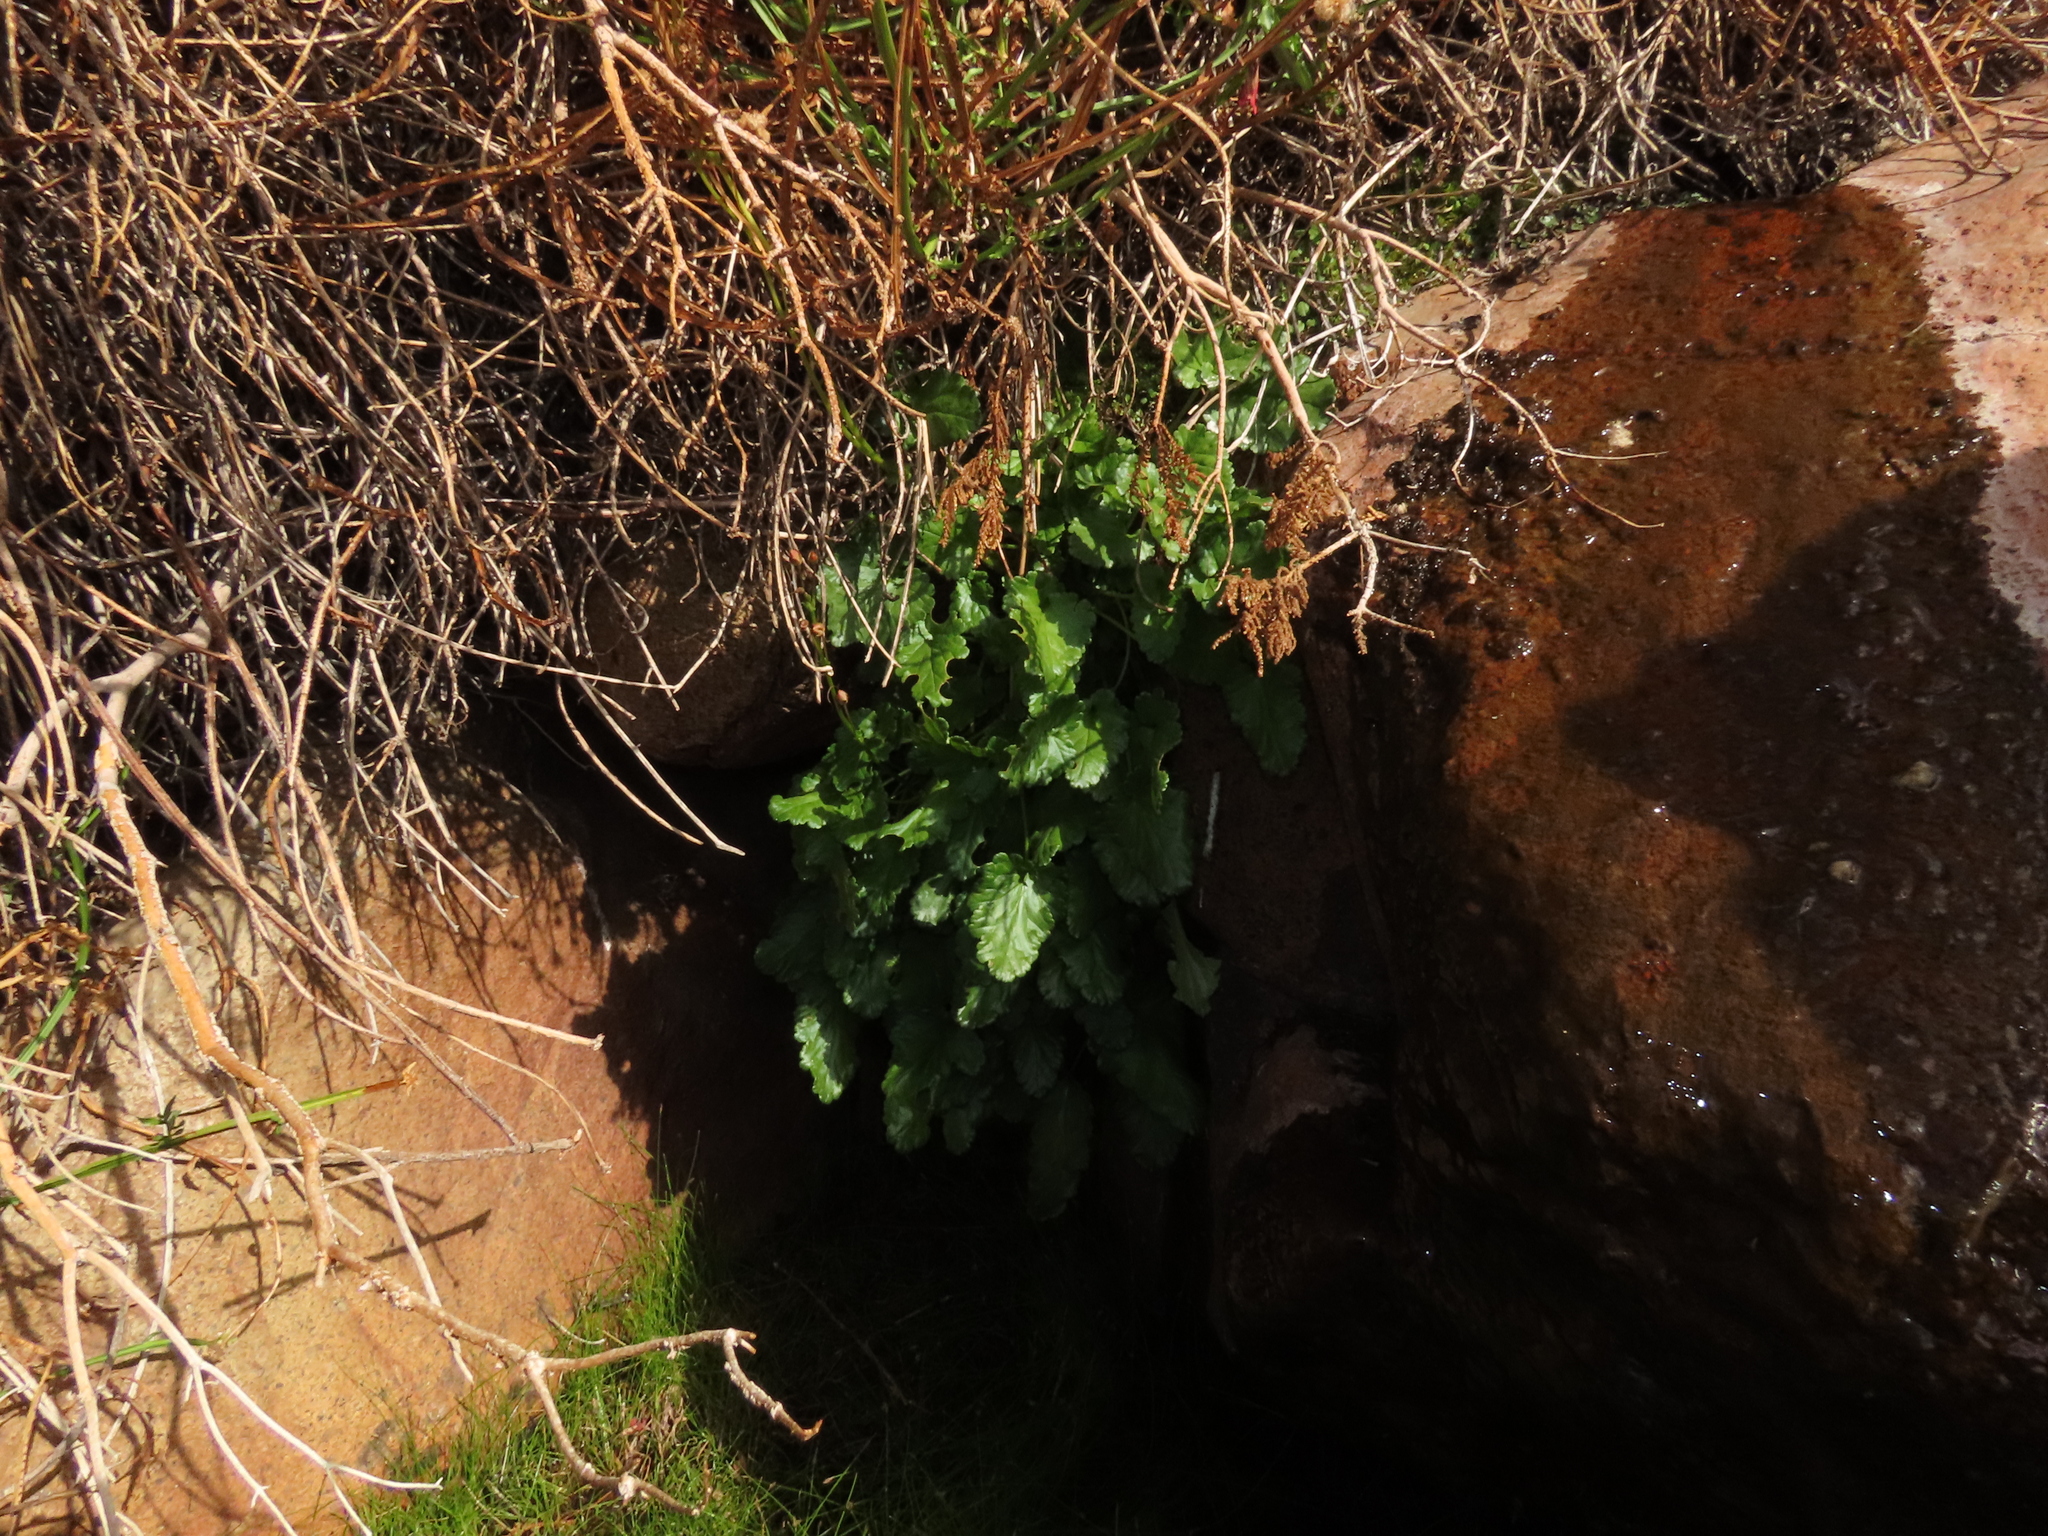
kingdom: Plantae
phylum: Tracheophyta
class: Magnoliopsida
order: Lamiales
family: Plantaginaceae
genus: Ourisia
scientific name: Ourisia coccinea
